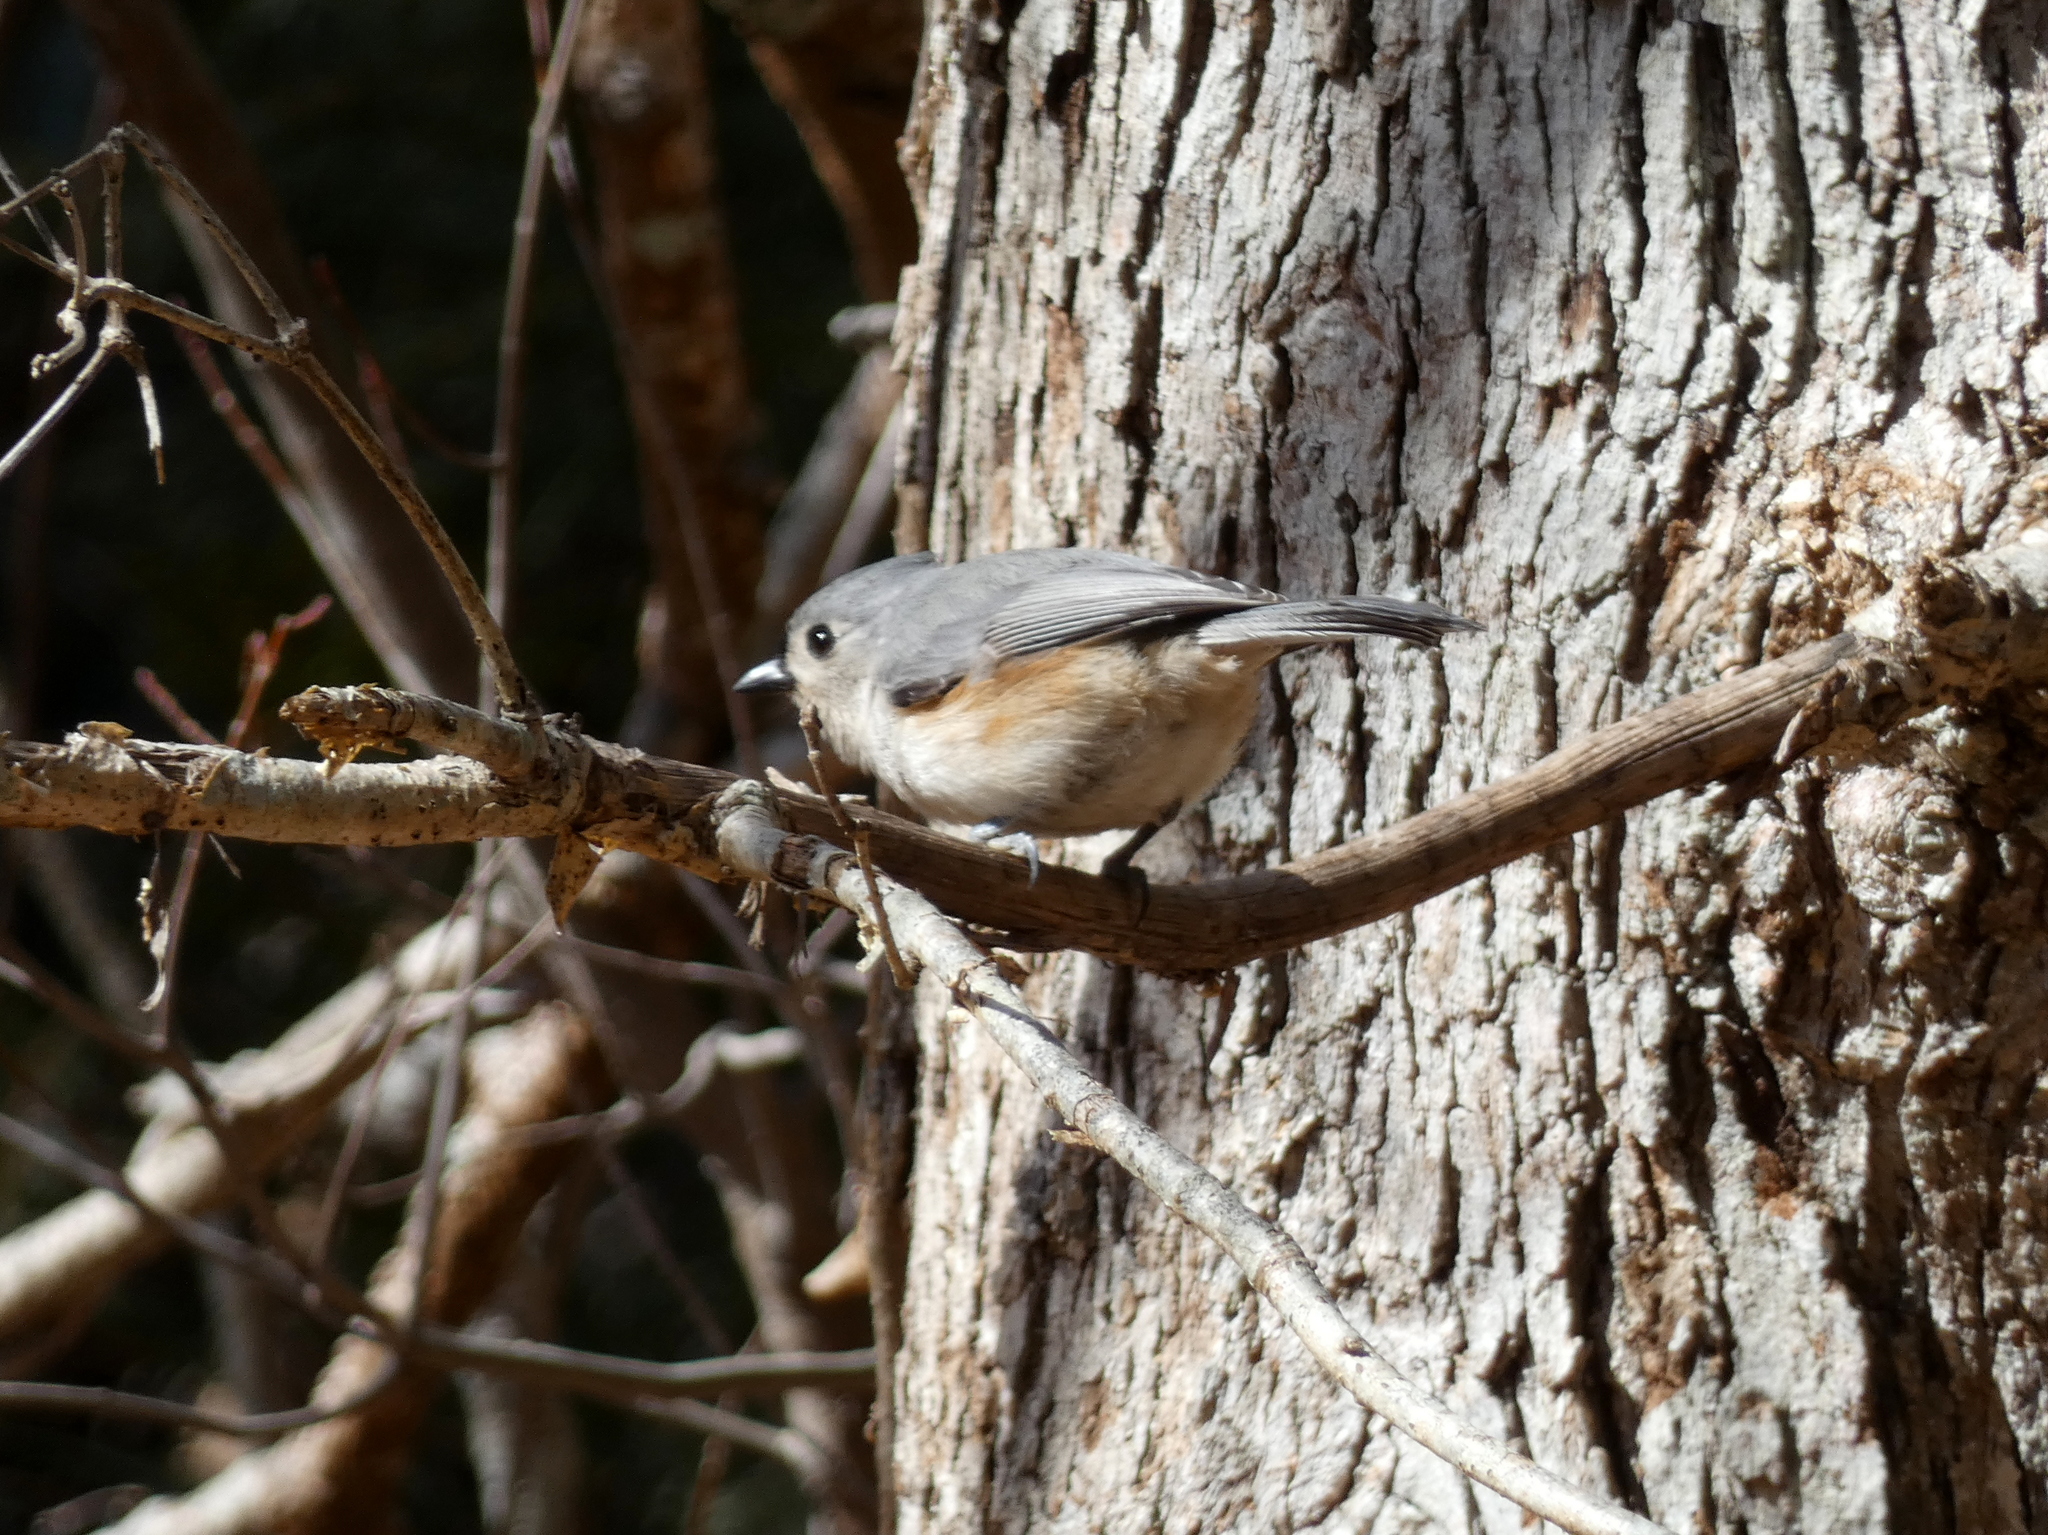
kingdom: Animalia
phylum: Chordata
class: Aves
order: Passeriformes
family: Paridae
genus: Baeolophus
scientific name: Baeolophus bicolor
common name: Tufted titmouse
